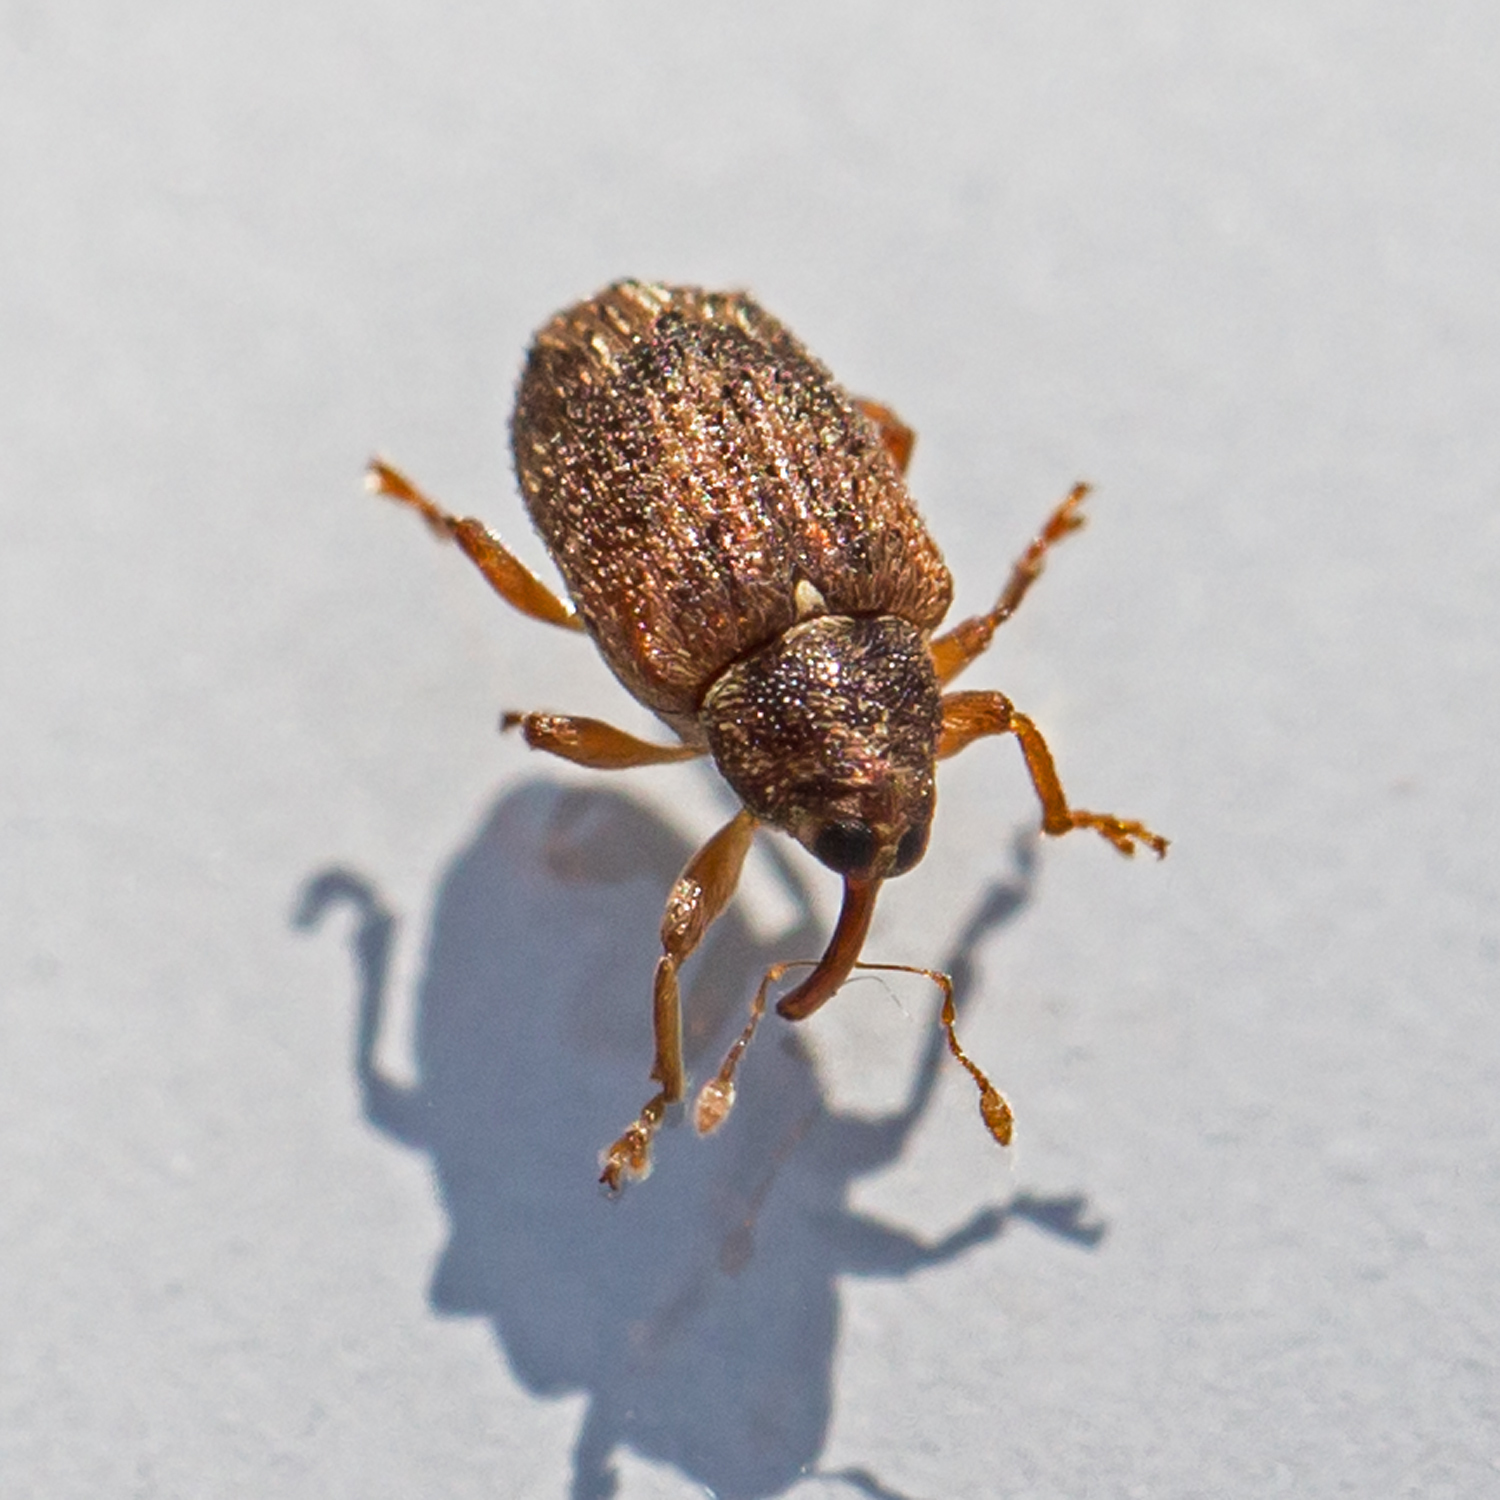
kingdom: Animalia
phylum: Arthropoda
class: Insecta
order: Coleoptera
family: Curculionidae
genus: Thysanocnemis
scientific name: Thysanocnemis bischoffi
